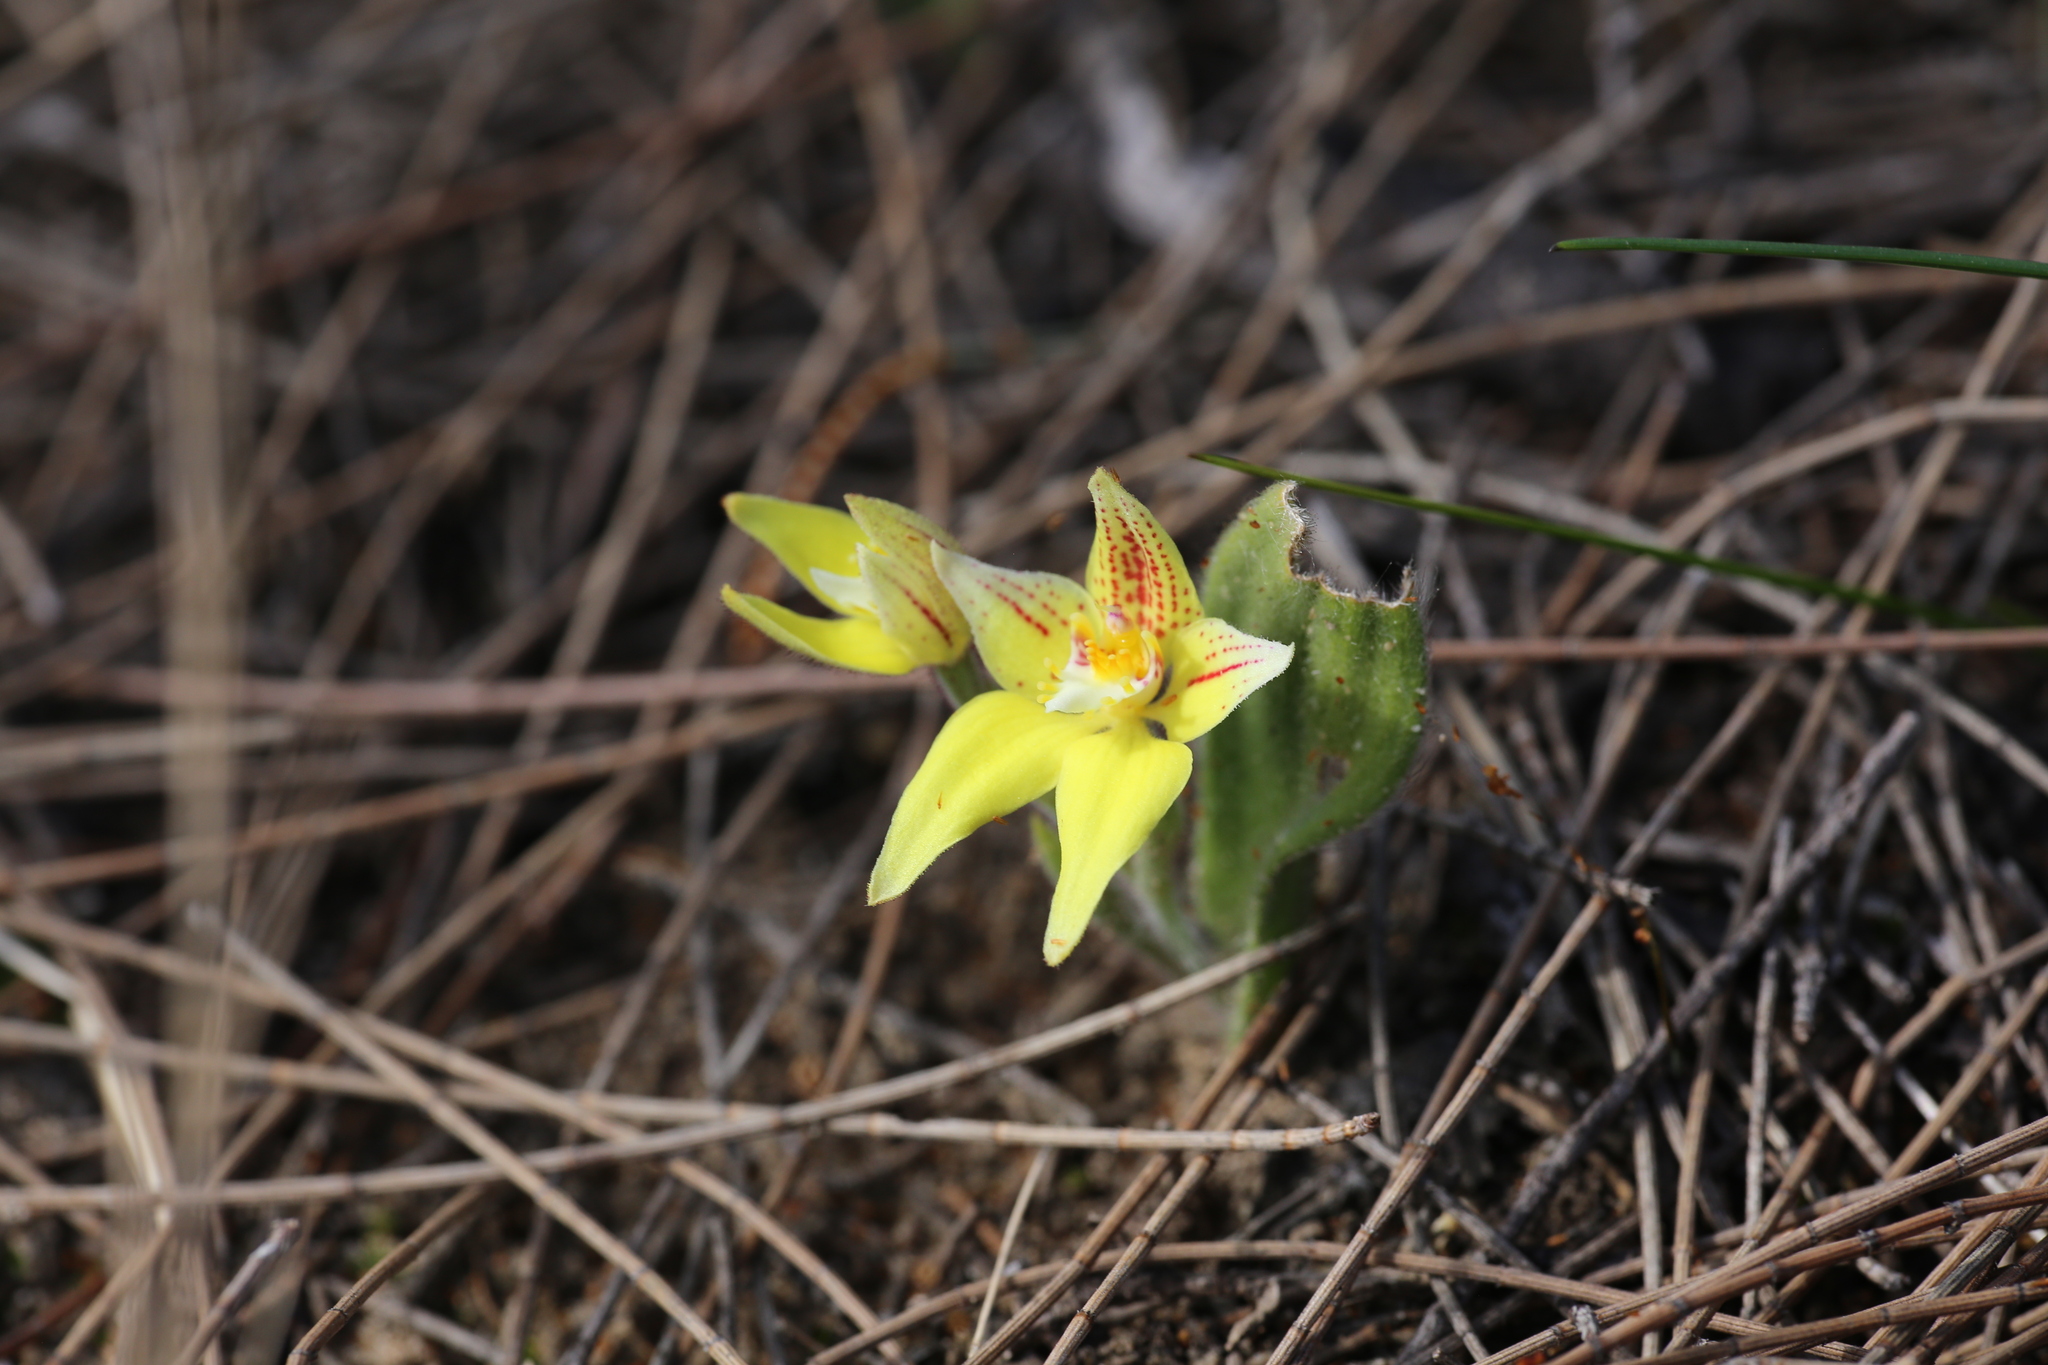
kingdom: Plantae
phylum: Tracheophyta
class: Liliopsida
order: Asparagales
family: Orchidaceae
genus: Caladenia
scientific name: Caladenia flava
